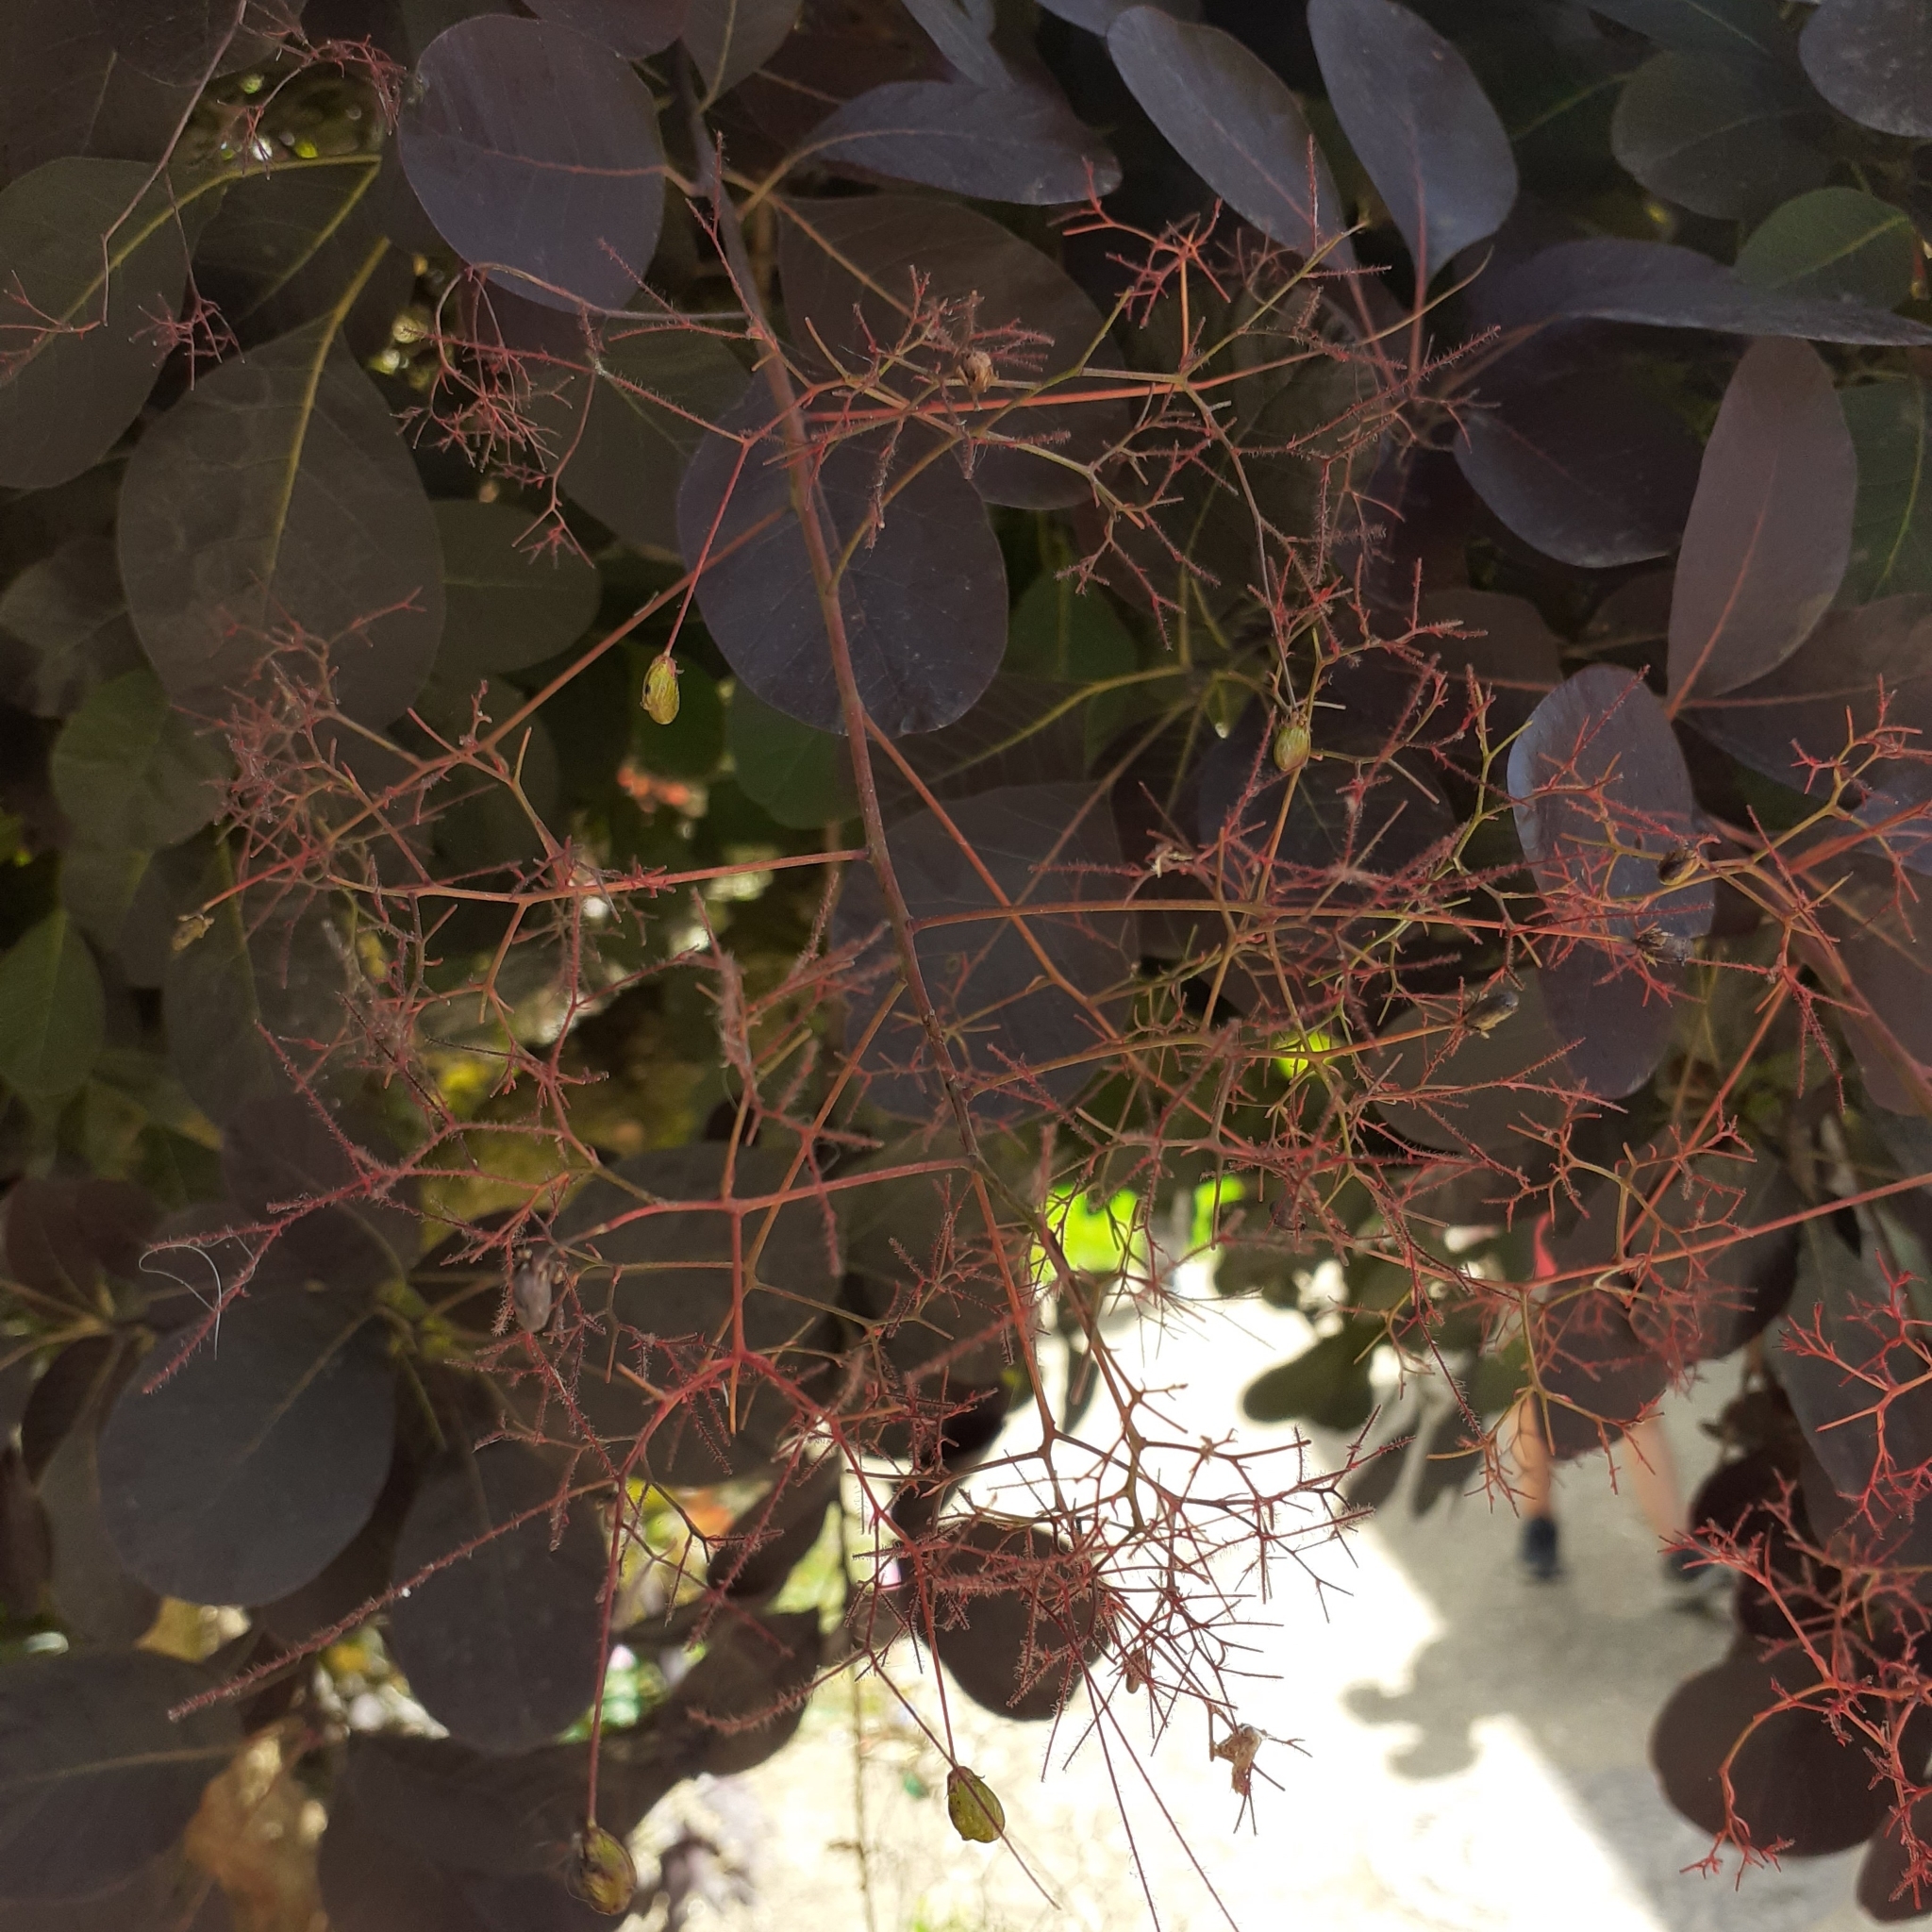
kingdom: Plantae
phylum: Tracheophyta
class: Magnoliopsida
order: Sapindales
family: Anacardiaceae
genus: Cotinus
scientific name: Cotinus coggygria
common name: Smoke-tree
